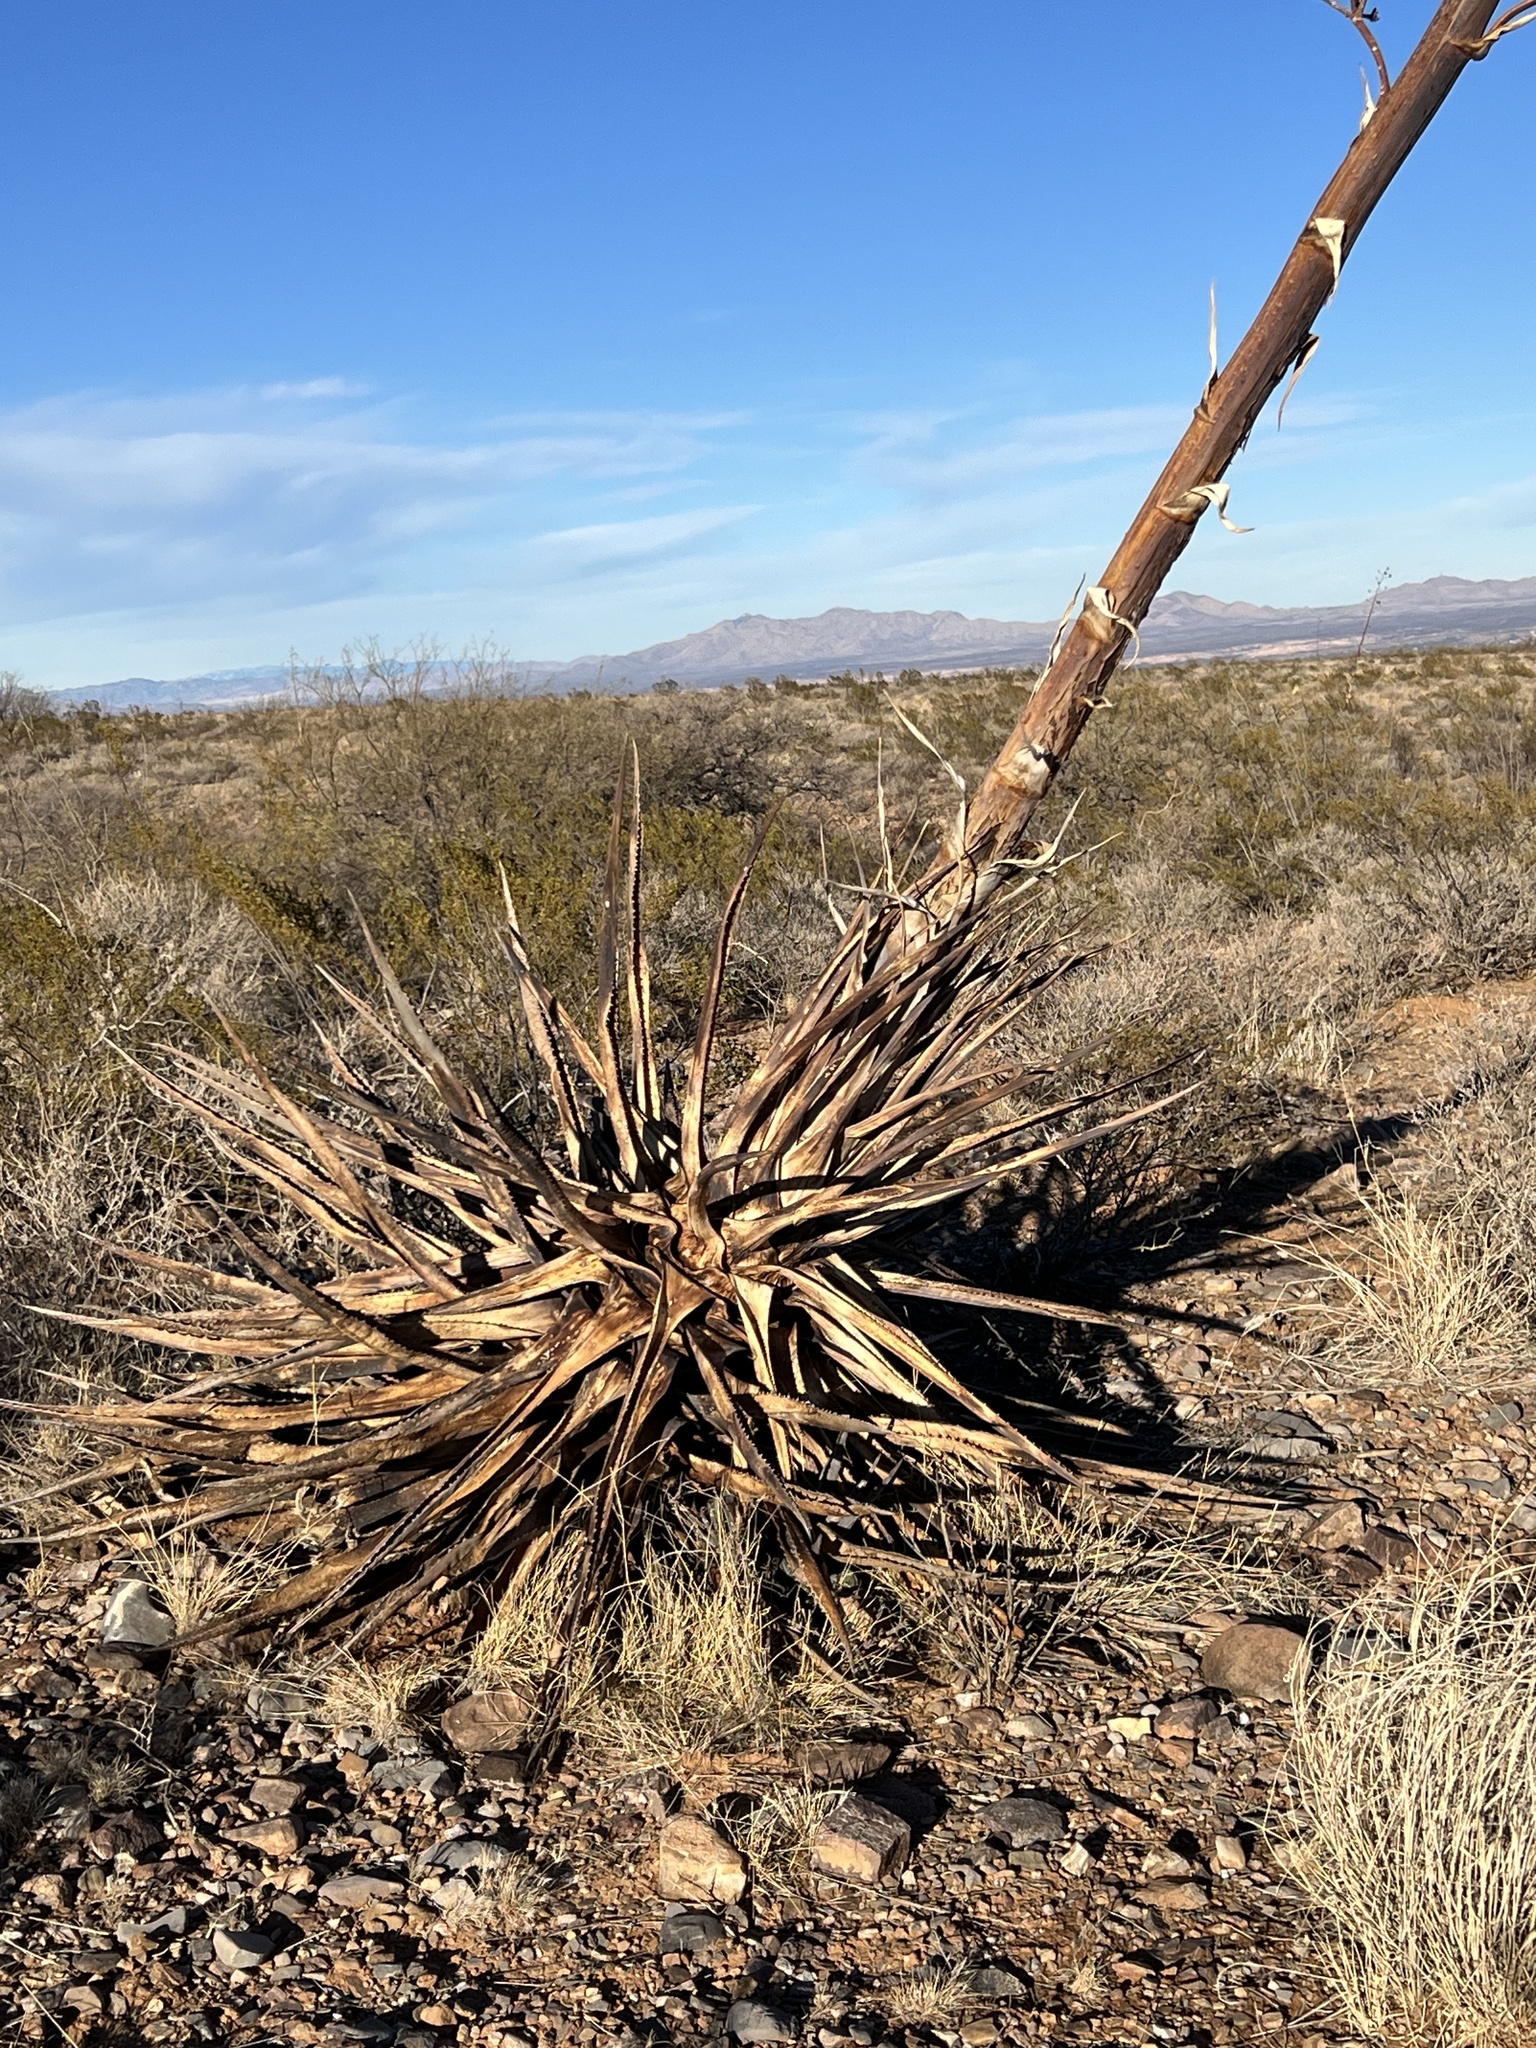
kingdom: Plantae
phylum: Tracheophyta
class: Liliopsida
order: Asparagales
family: Asparagaceae
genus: Agave
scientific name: Agave palmeri
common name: Palmer agave
